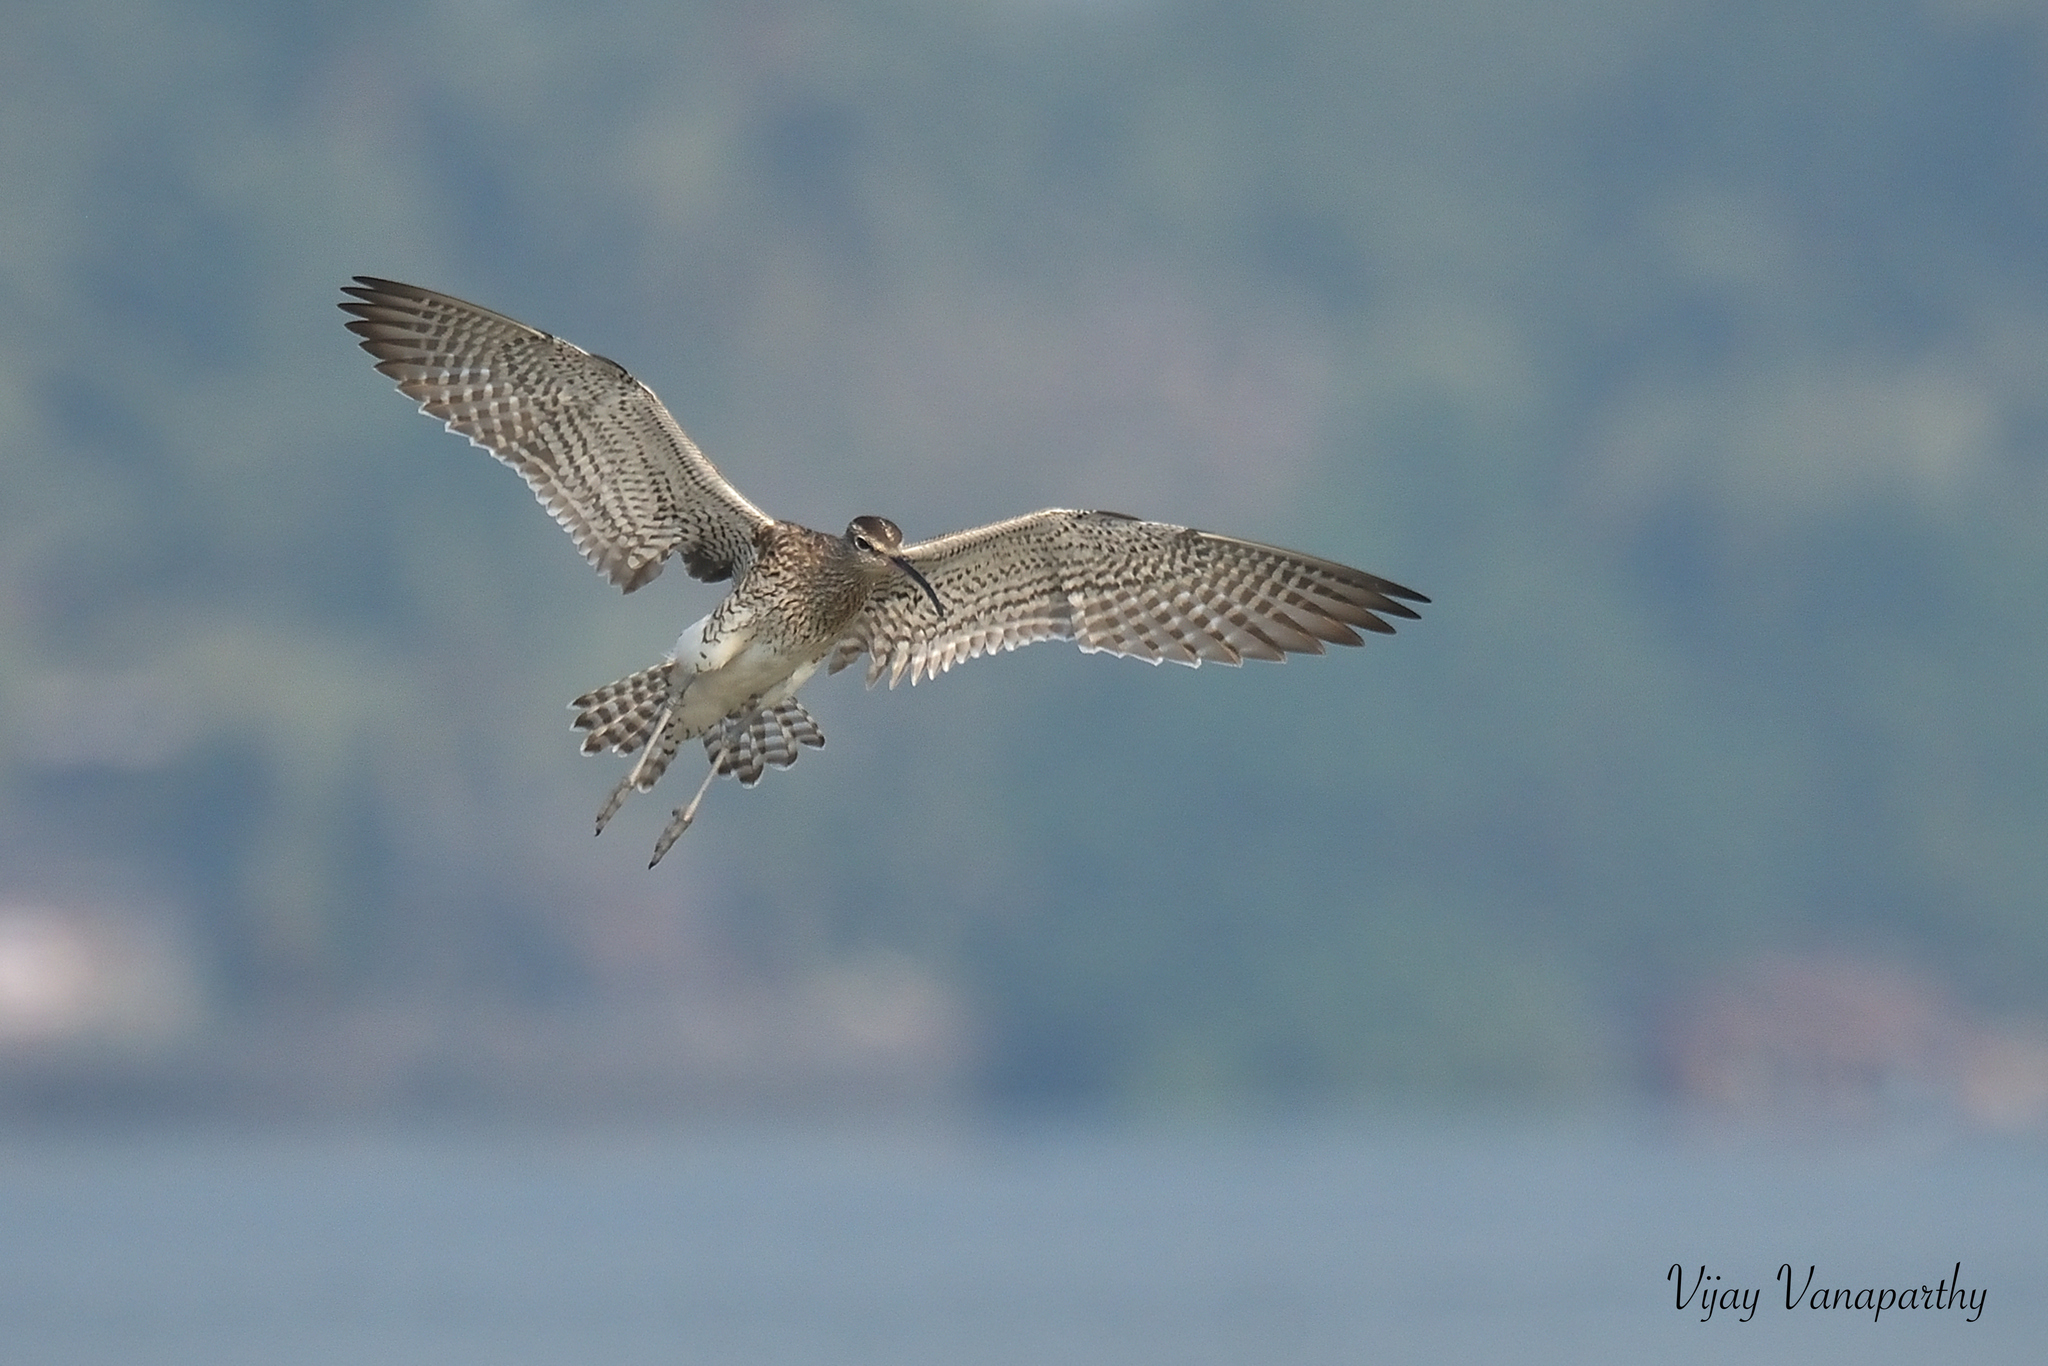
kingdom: Animalia
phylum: Chordata
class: Aves
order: Charadriiformes
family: Scolopacidae
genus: Numenius
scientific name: Numenius phaeopus
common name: Whimbrel
